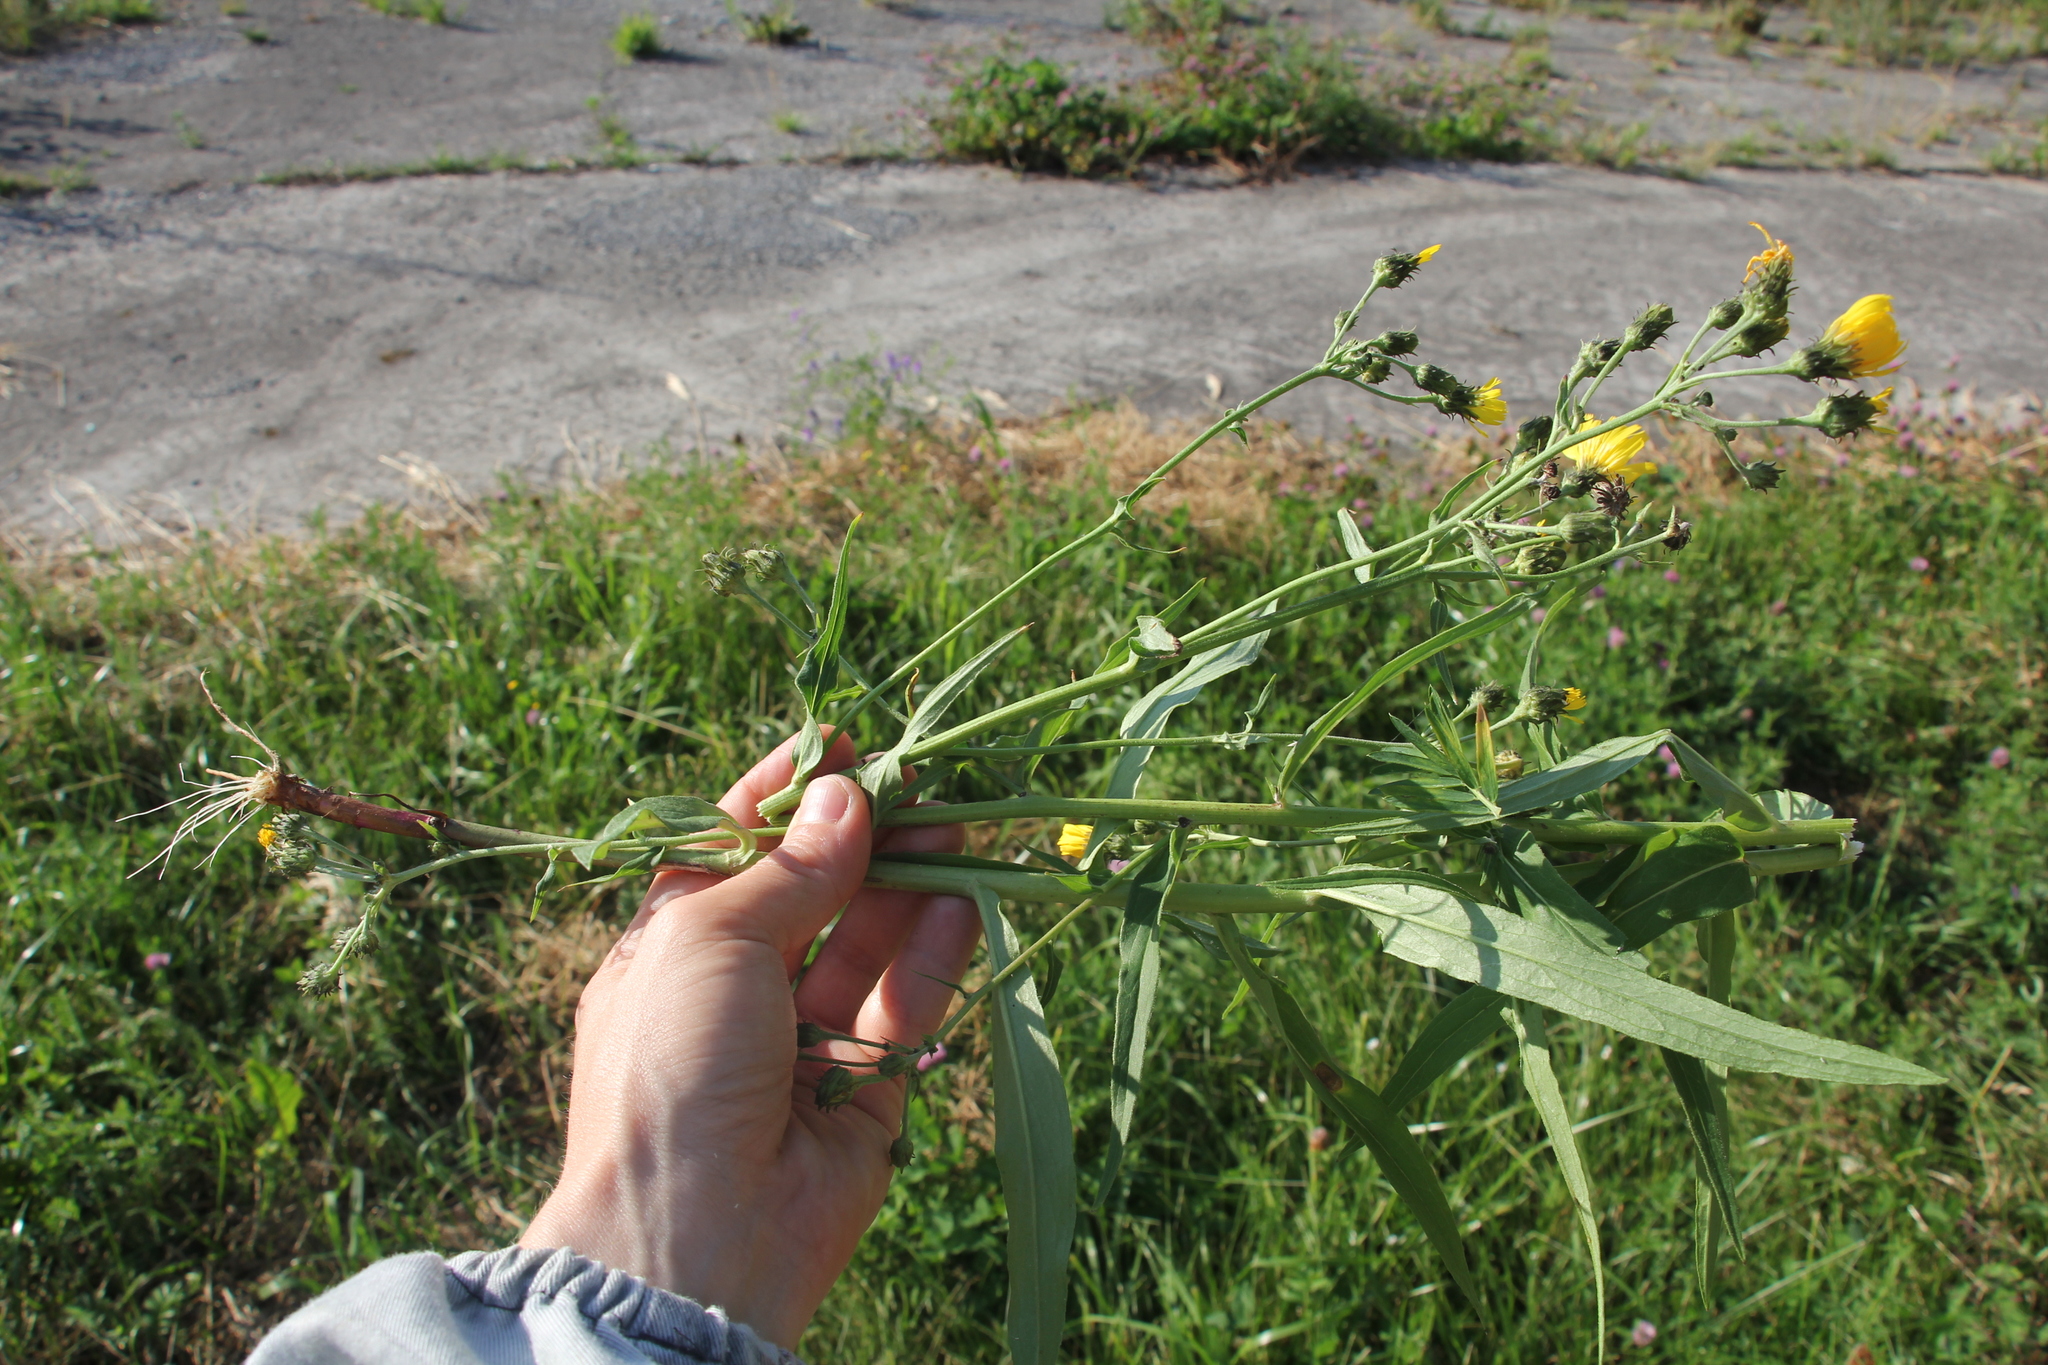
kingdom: Plantae
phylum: Tracheophyta
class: Magnoliopsida
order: Asterales
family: Asteraceae
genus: Hieracium
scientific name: Hieracium umbellatum
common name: Northern hawkweed
